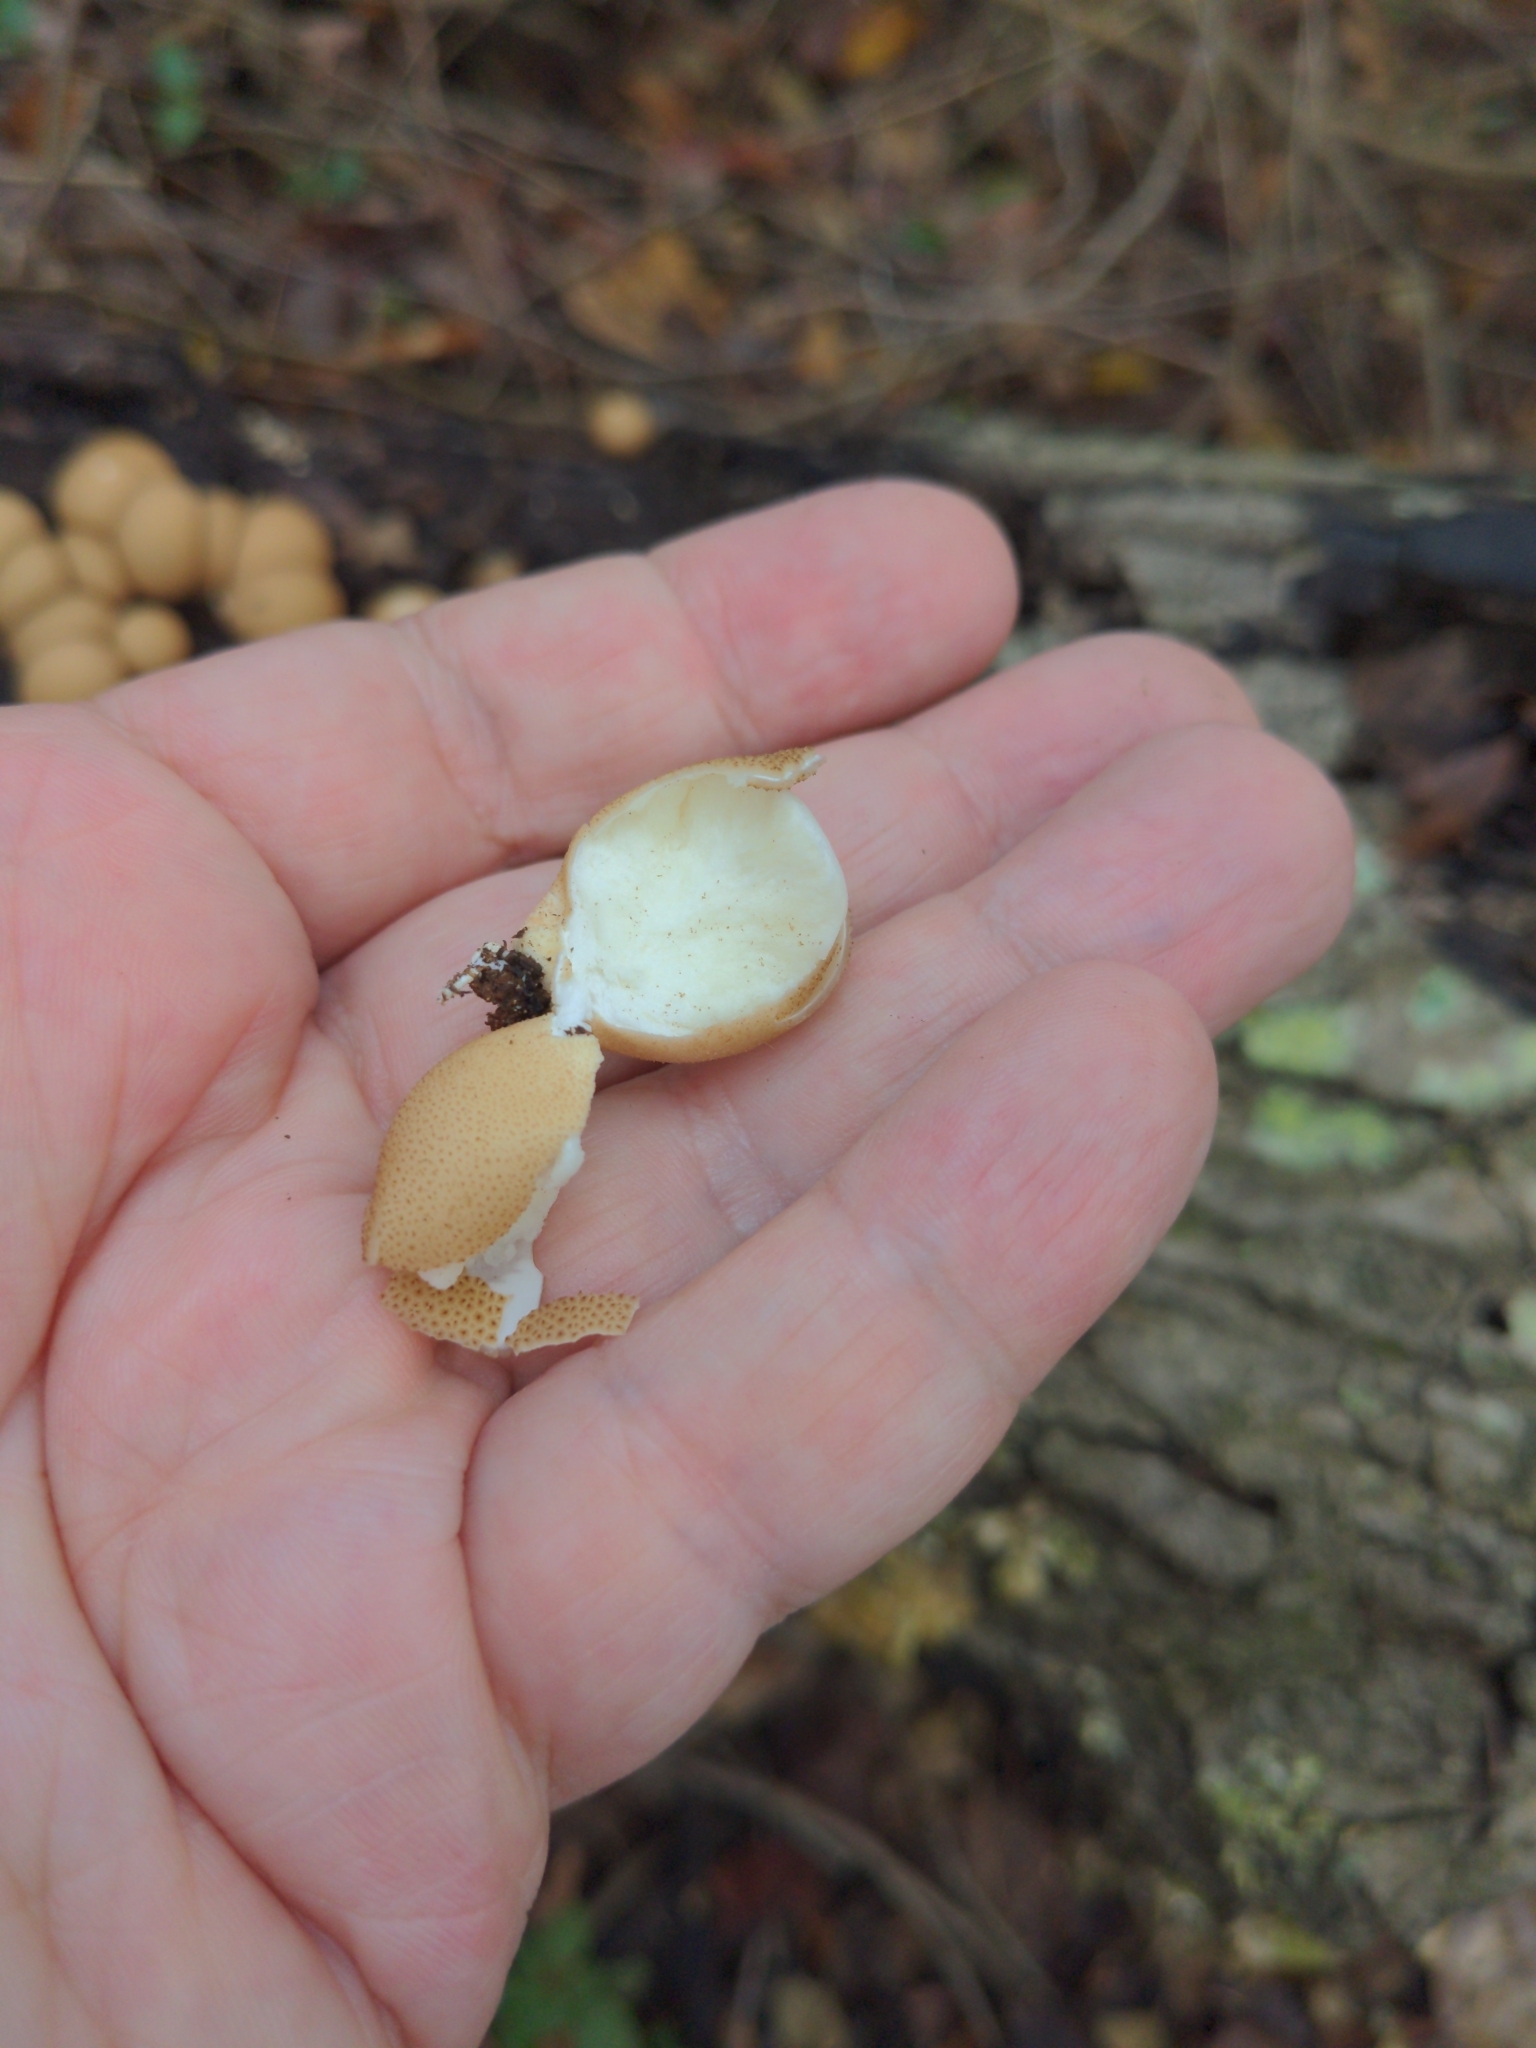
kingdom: Fungi
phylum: Basidiomycota
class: Agaricomycetes
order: Agaricales
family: Lycoperdaceae
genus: Apioperdon
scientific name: Apioperdon pyriforme
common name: Pear-shaped puffball
